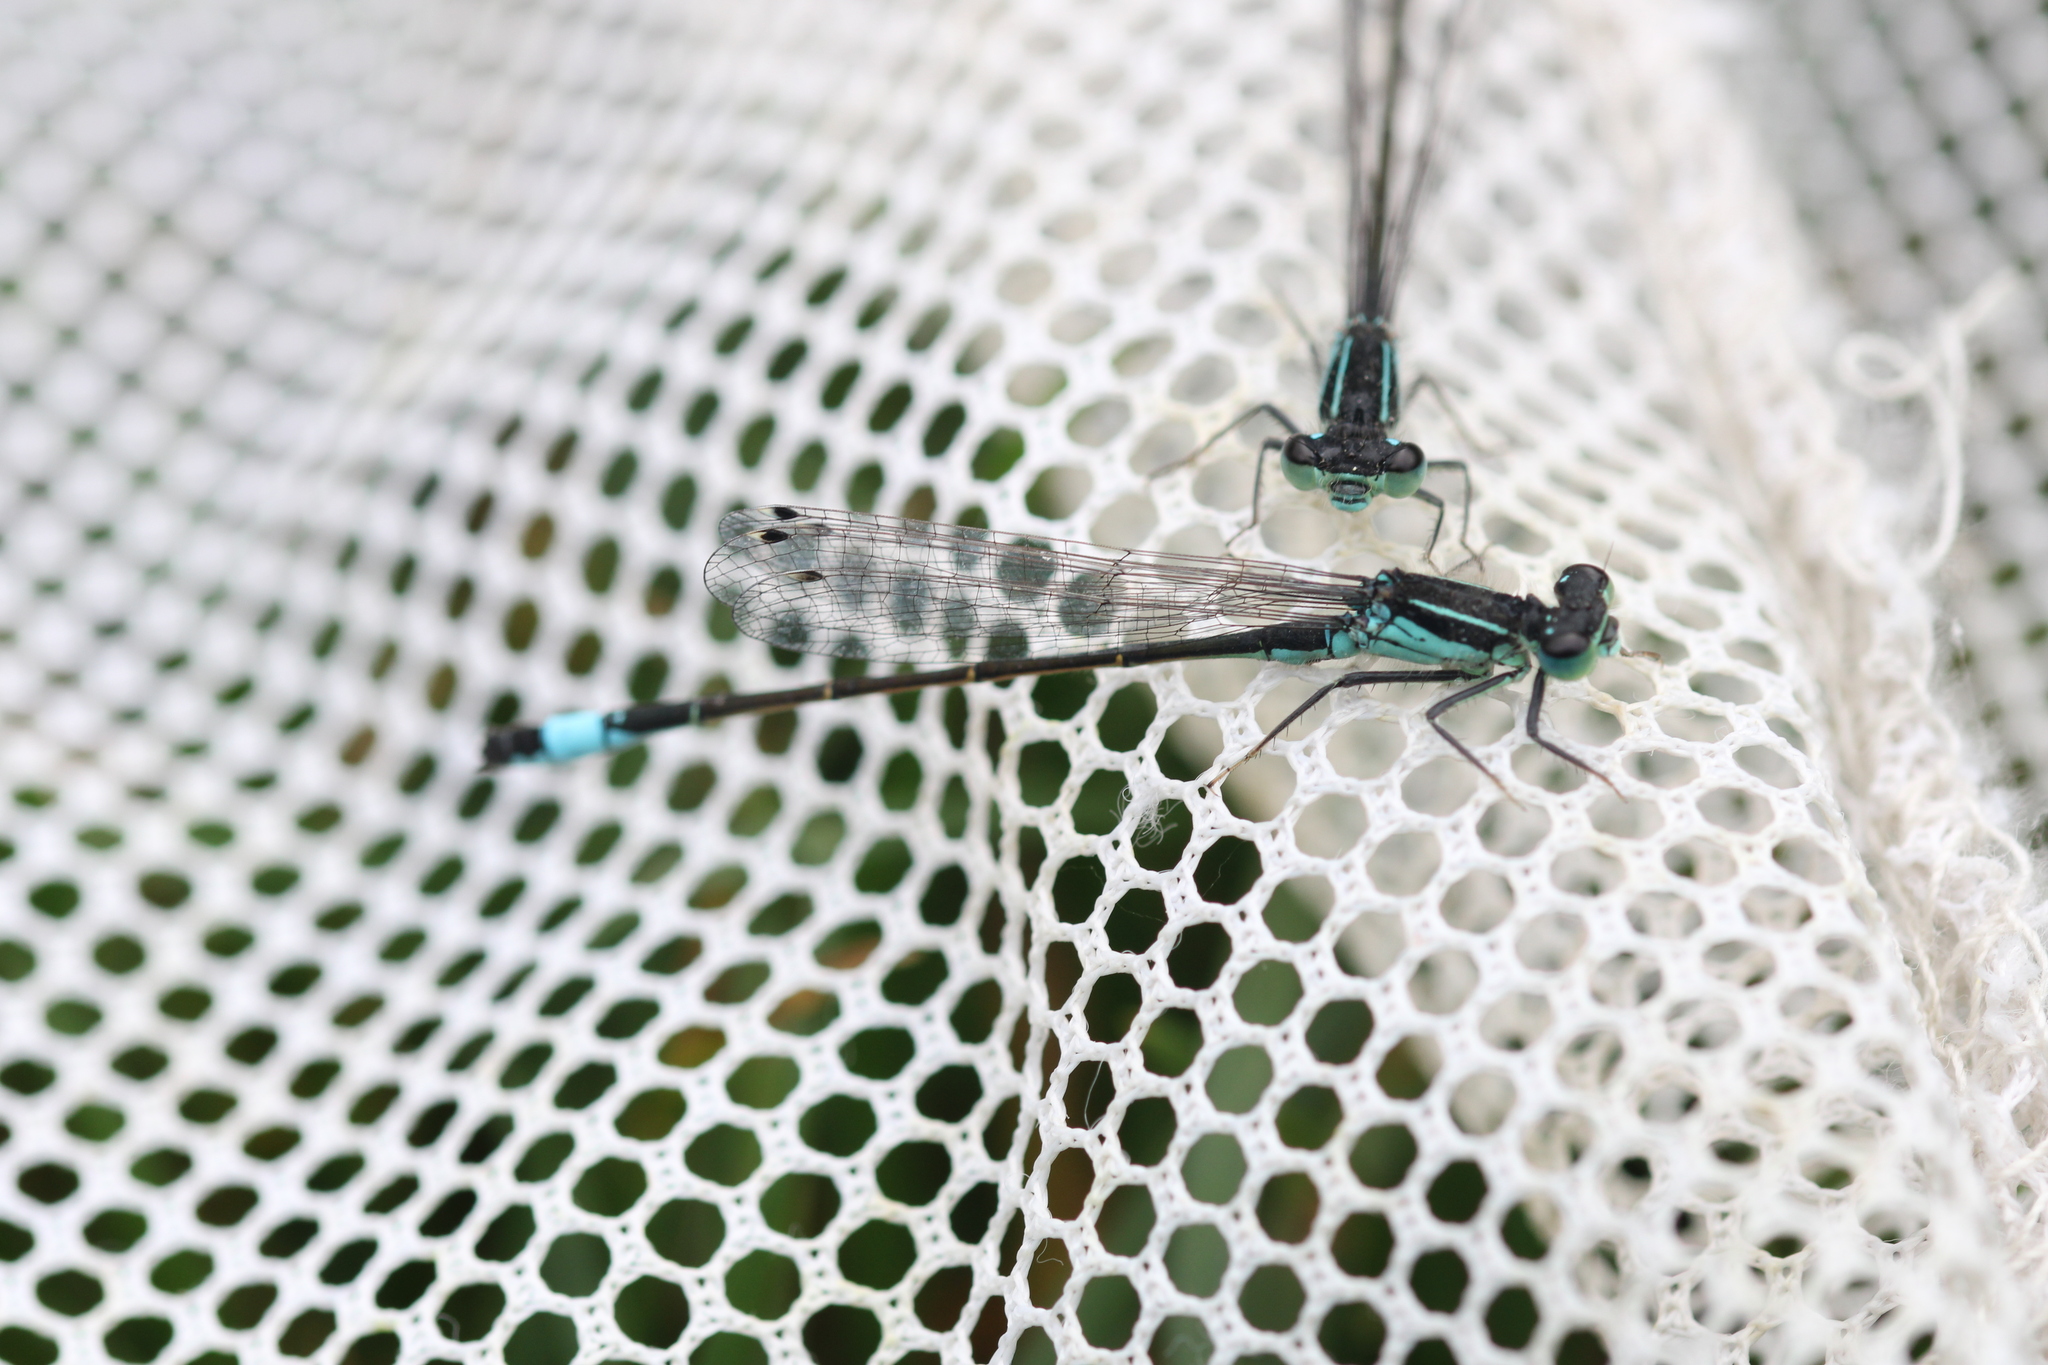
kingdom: Animalia
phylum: Arthropoda
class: Insecta
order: Odonata
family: Coenagrionidae
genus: Ischnura
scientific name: Ischnura elegans
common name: Blue-tailed damselfly
